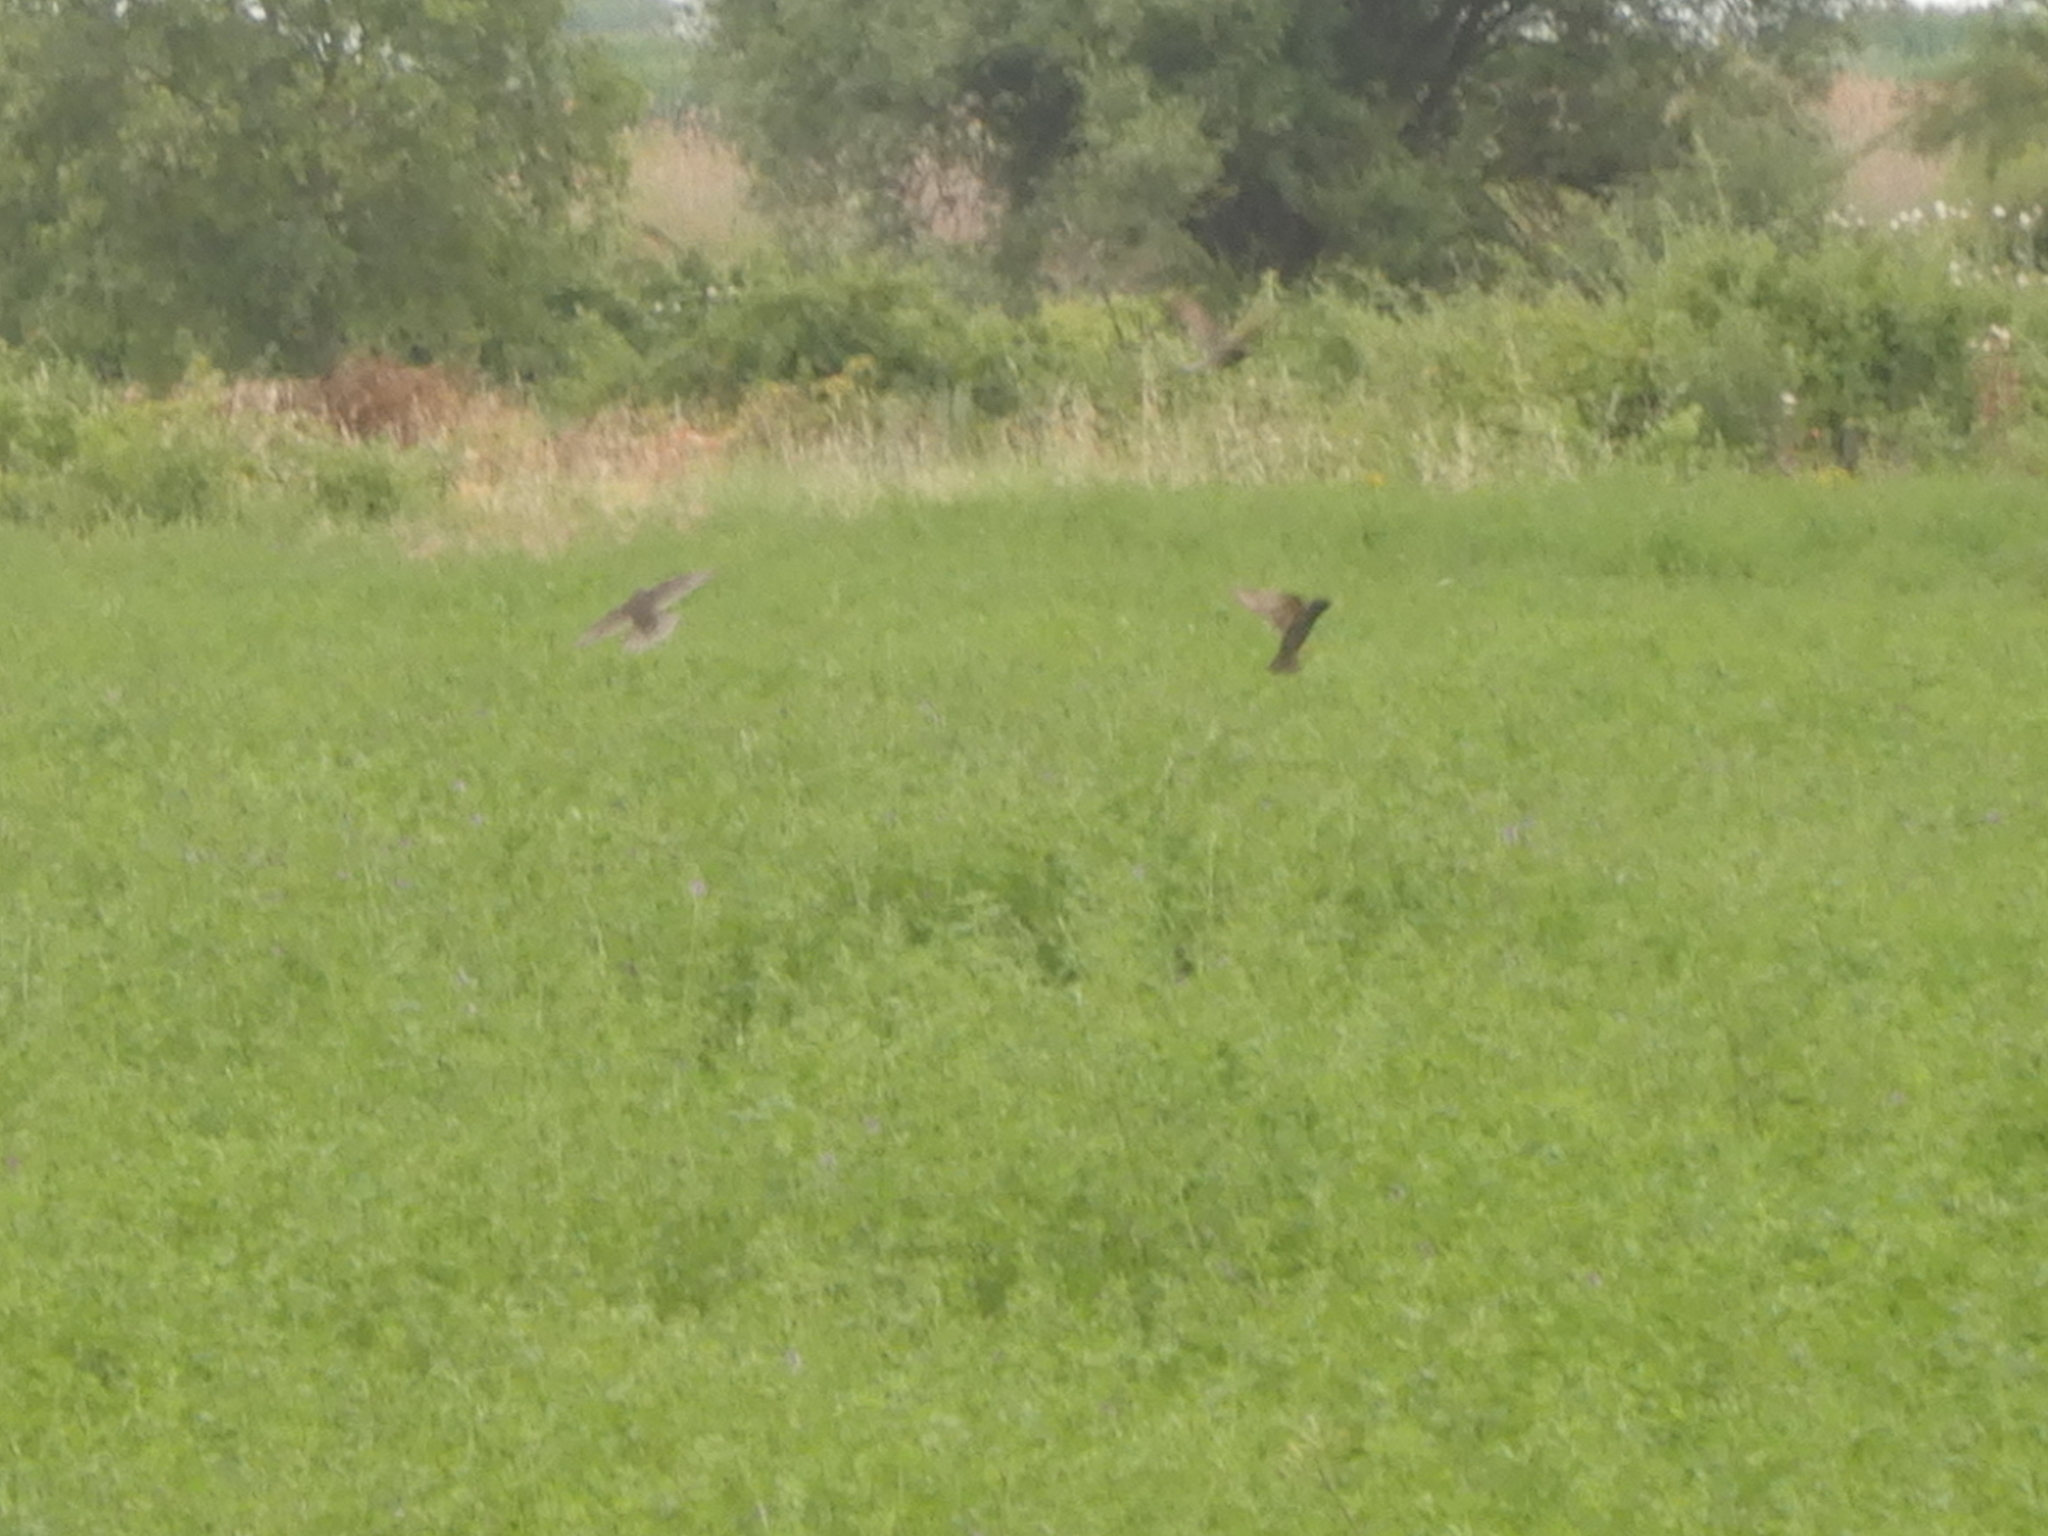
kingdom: Animalia
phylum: Chordata
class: Aves
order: Passeriformes
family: Sturnidae
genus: Sturnus
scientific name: Sturnus vulgaris
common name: Common starling
